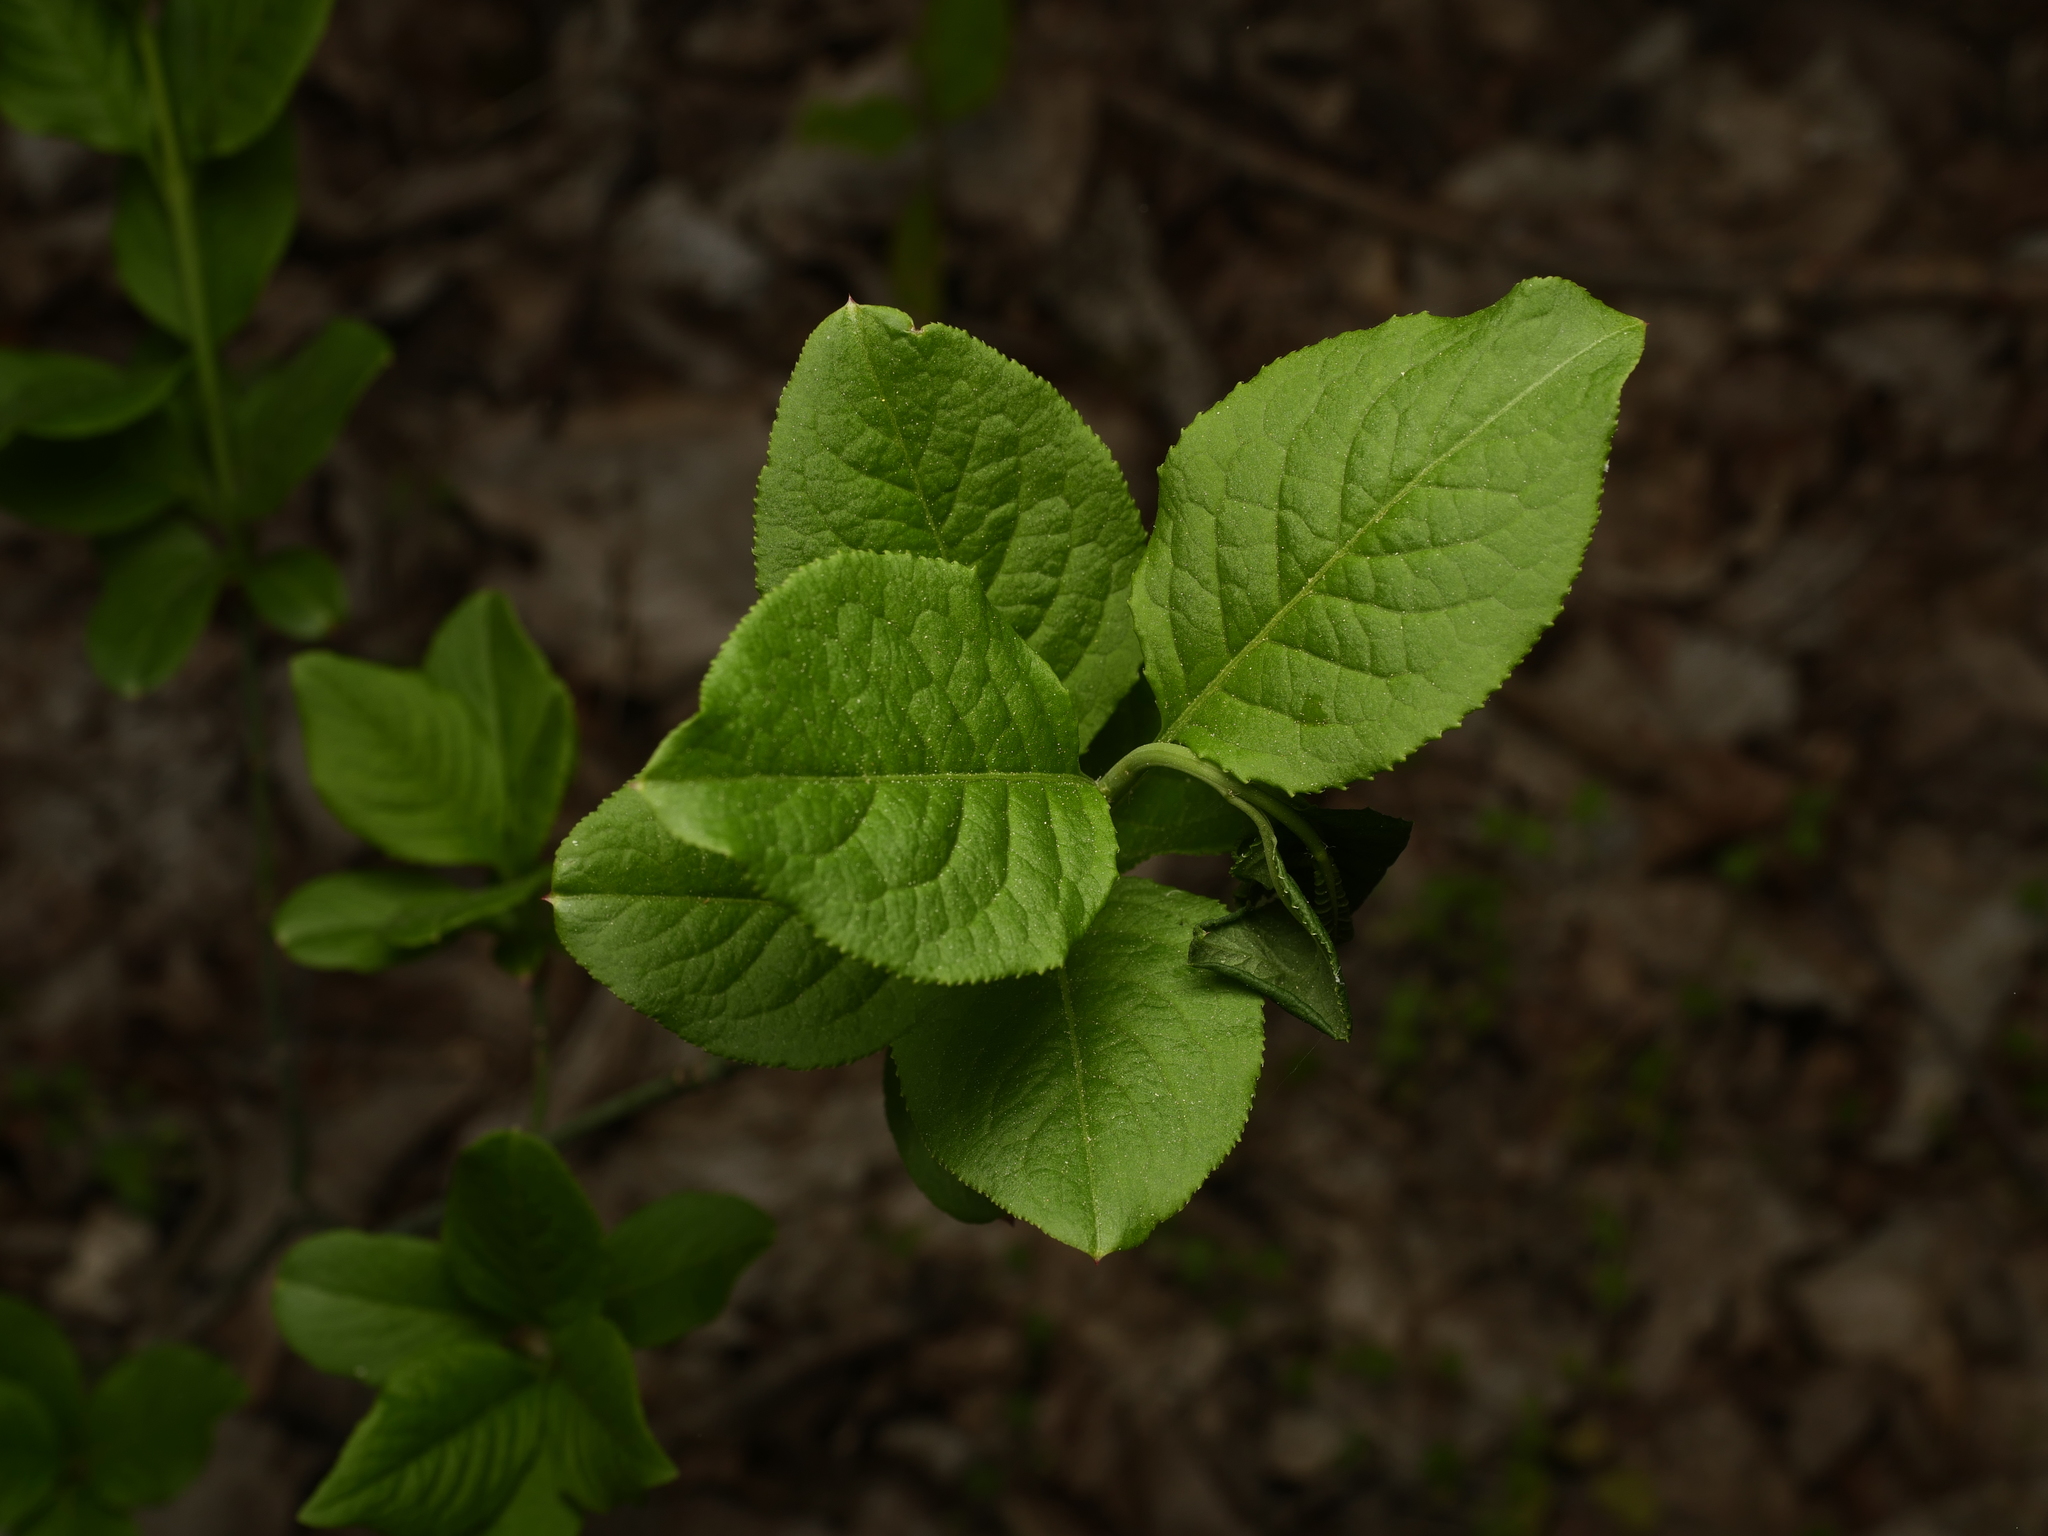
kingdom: Plantae
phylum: Tracheophyta
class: Magnoliopsida
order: Celastrales
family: Celastraceae
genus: Euonymus
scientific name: Euonymus europaeus
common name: Spindle
